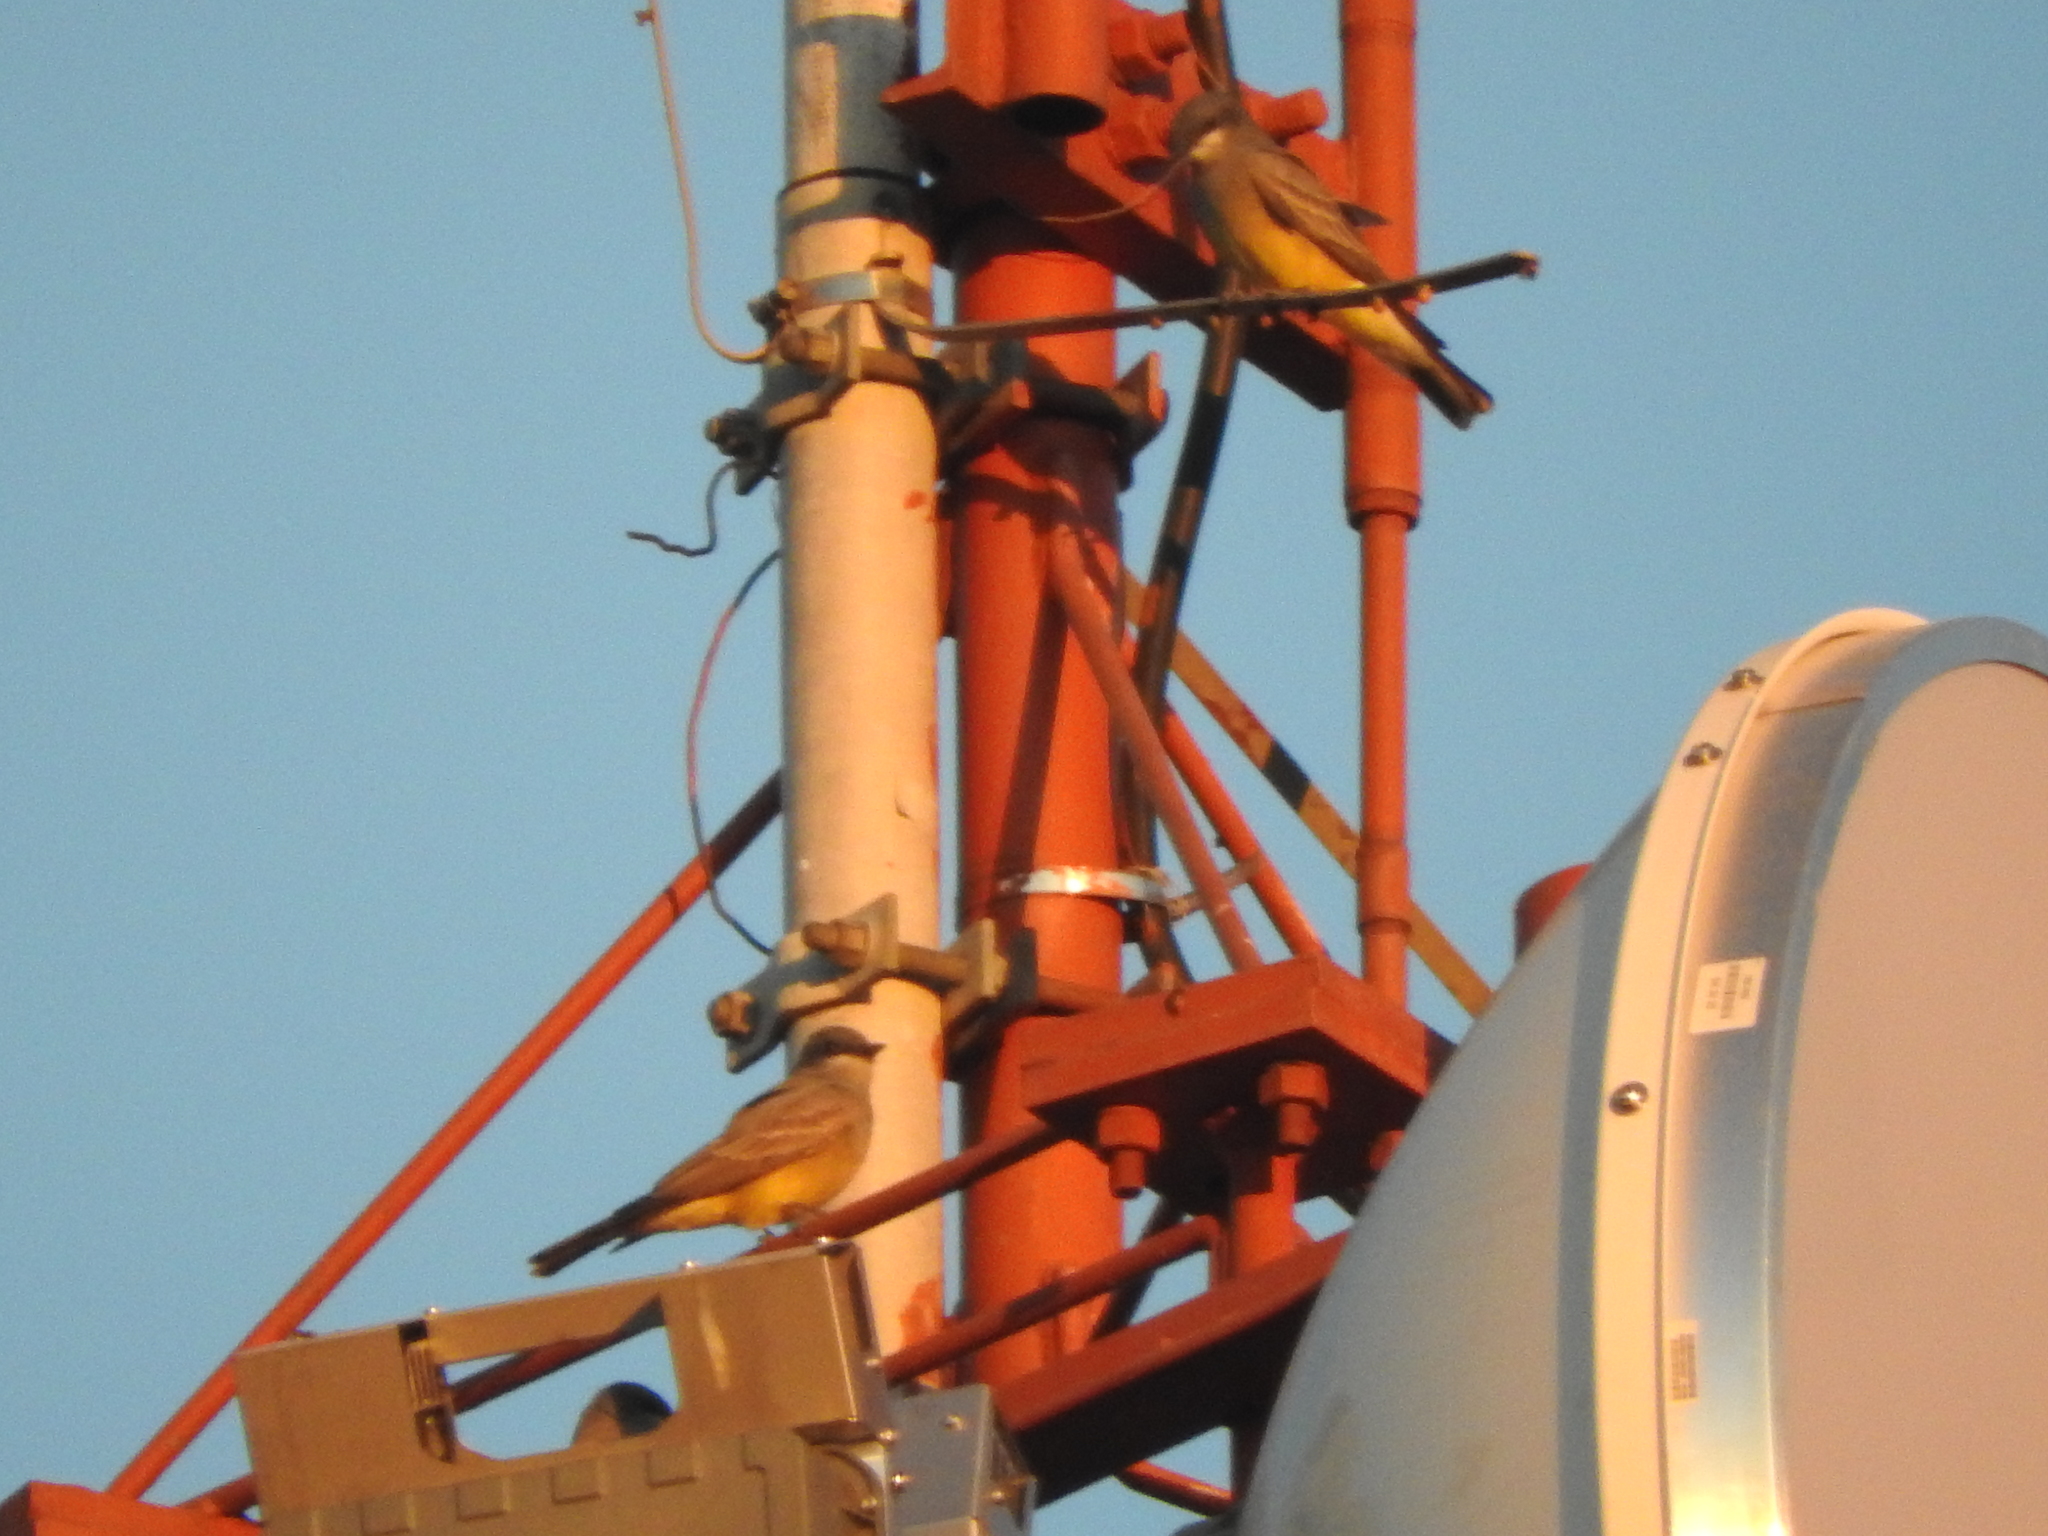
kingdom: Animalia
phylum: Chordata
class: Aves
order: Passeriformes
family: Tyrannidae
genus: Tyrannus
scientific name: Tyrannus vociferans
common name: Cassin's kingbird
